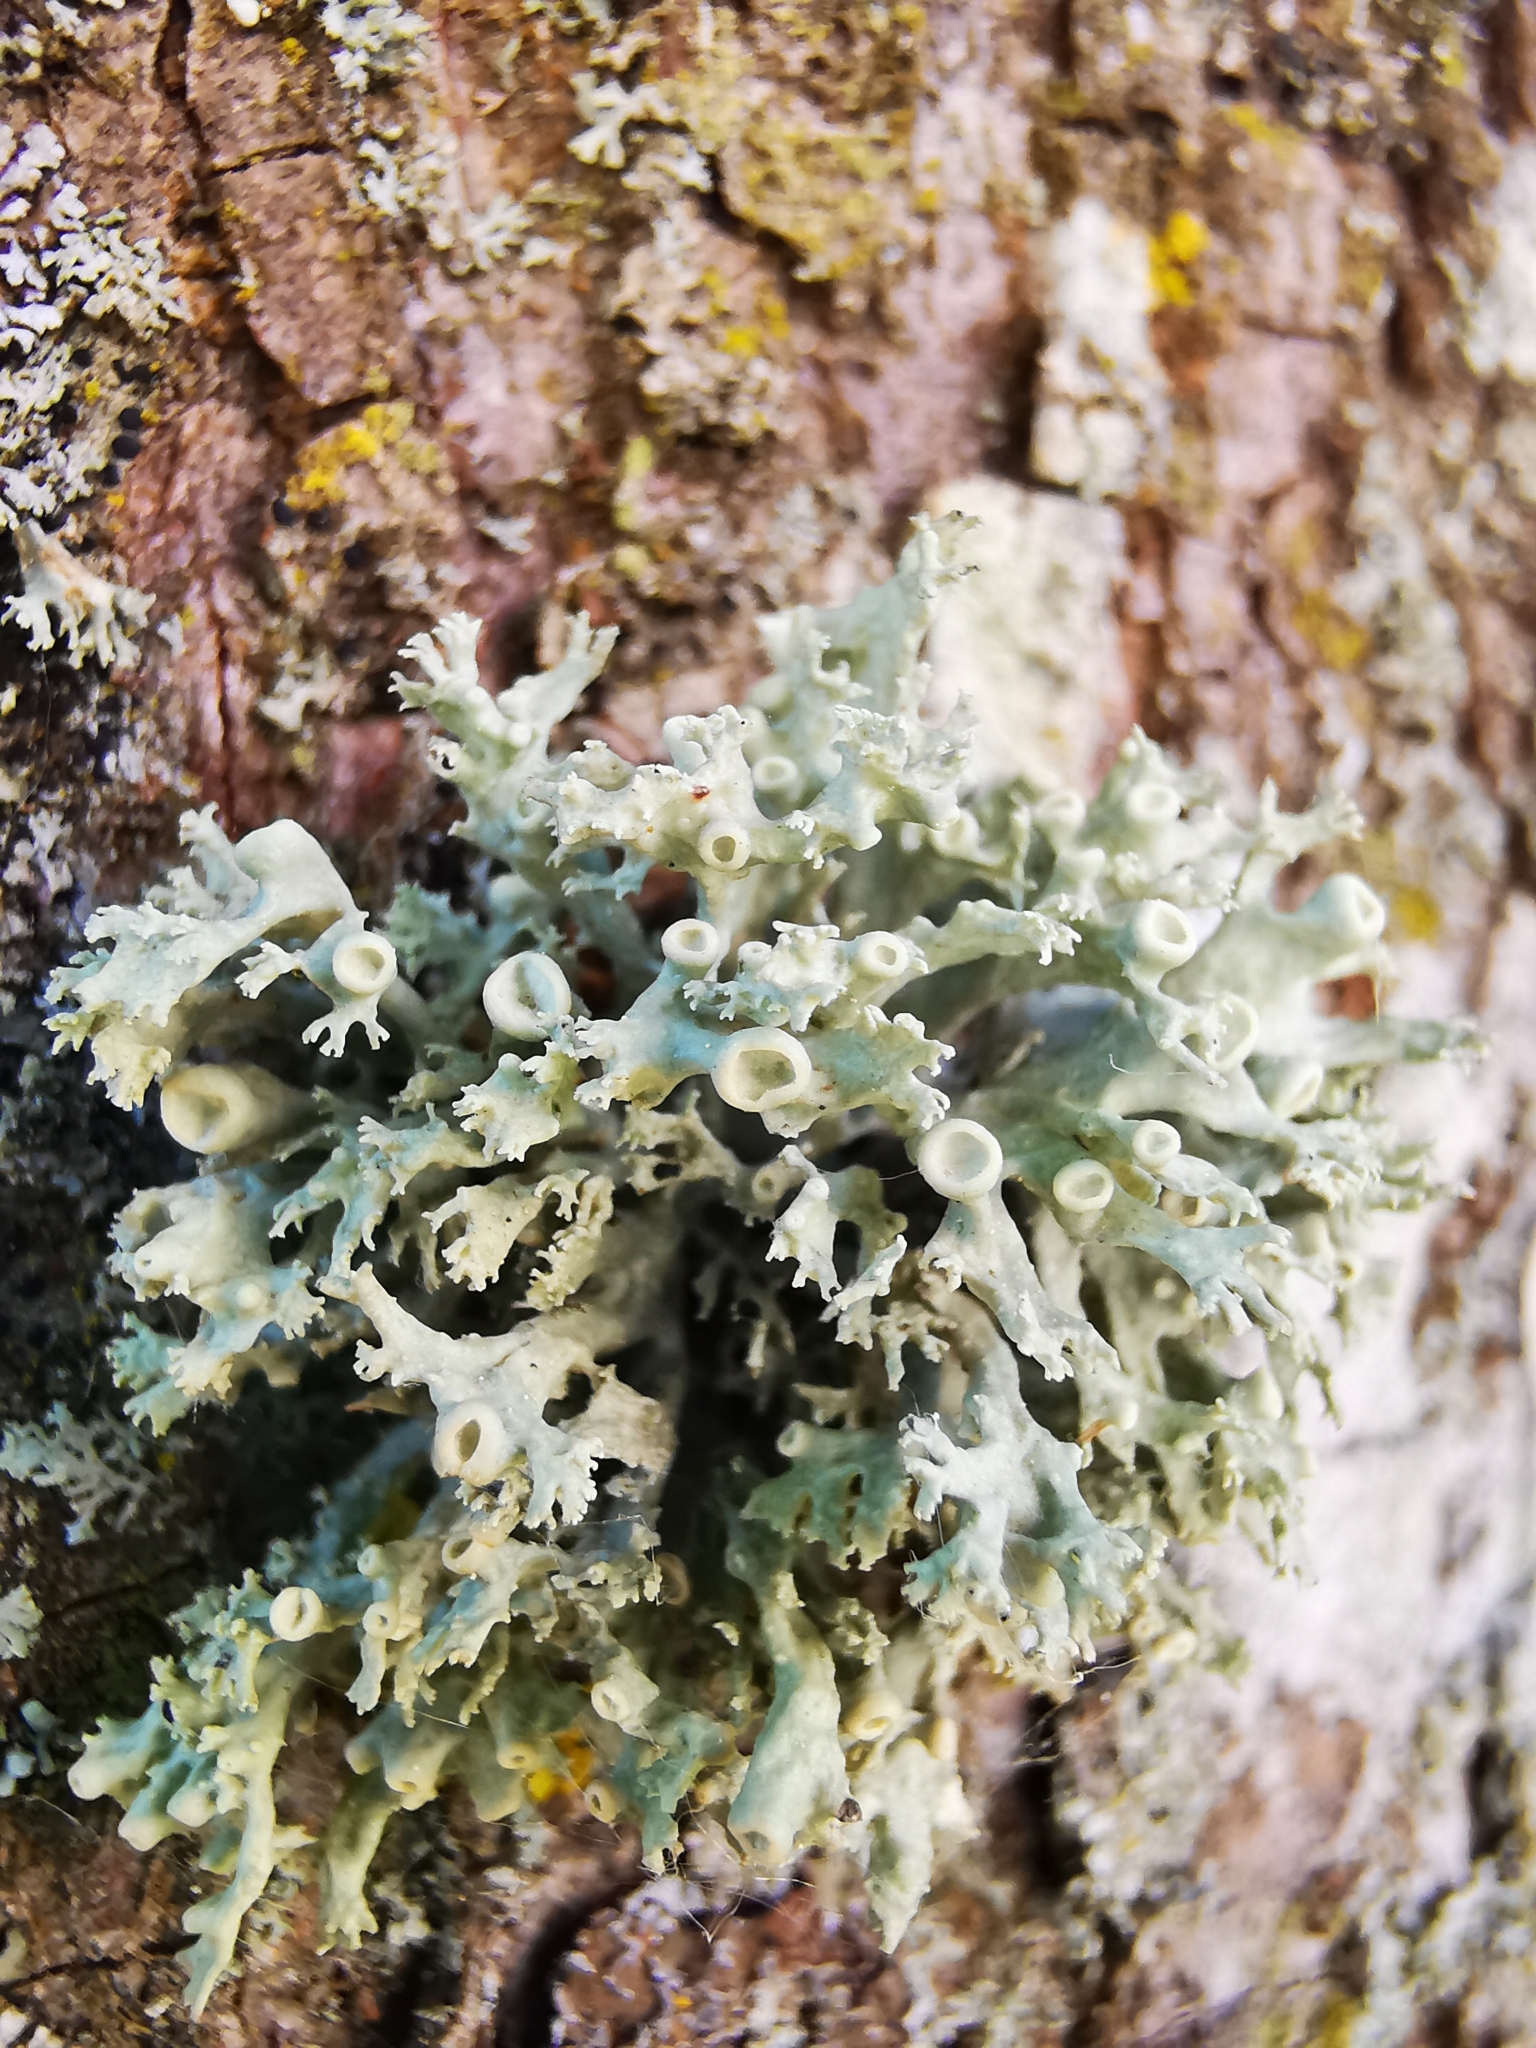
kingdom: Fungi
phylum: Ascomycota
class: Lecanoromycetes
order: Lecanorales
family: Ramalinaceae
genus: Ramalina
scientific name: Ramalina fastigiata
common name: Dotted ribbon lichen
